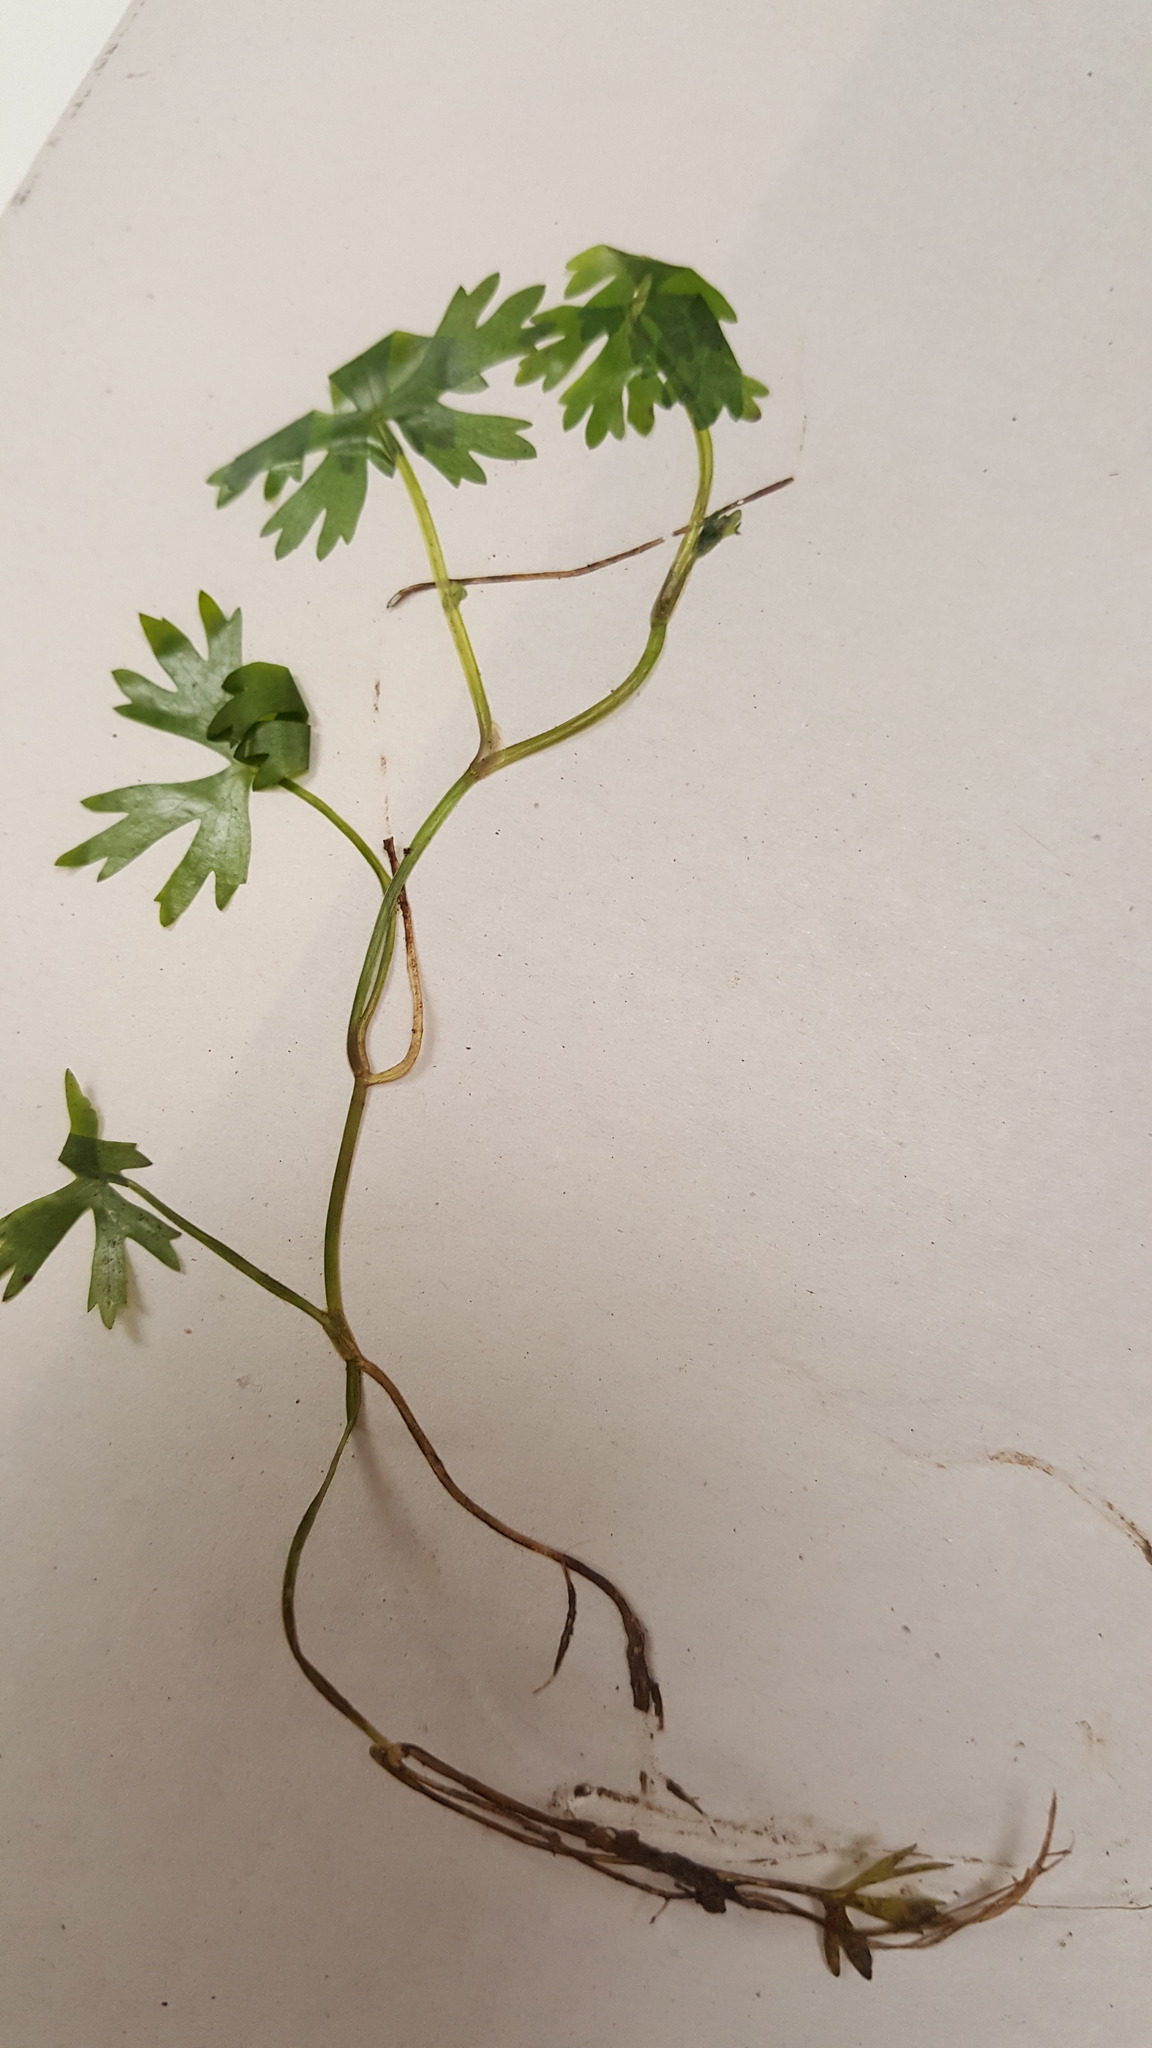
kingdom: Plantae
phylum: Tracheophyta
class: Magnoliopsida
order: Ranunculales
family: Ranunculaceae
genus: Ranunculus
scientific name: Ranunculus flabellaris
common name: Yellow water-crowfoot
